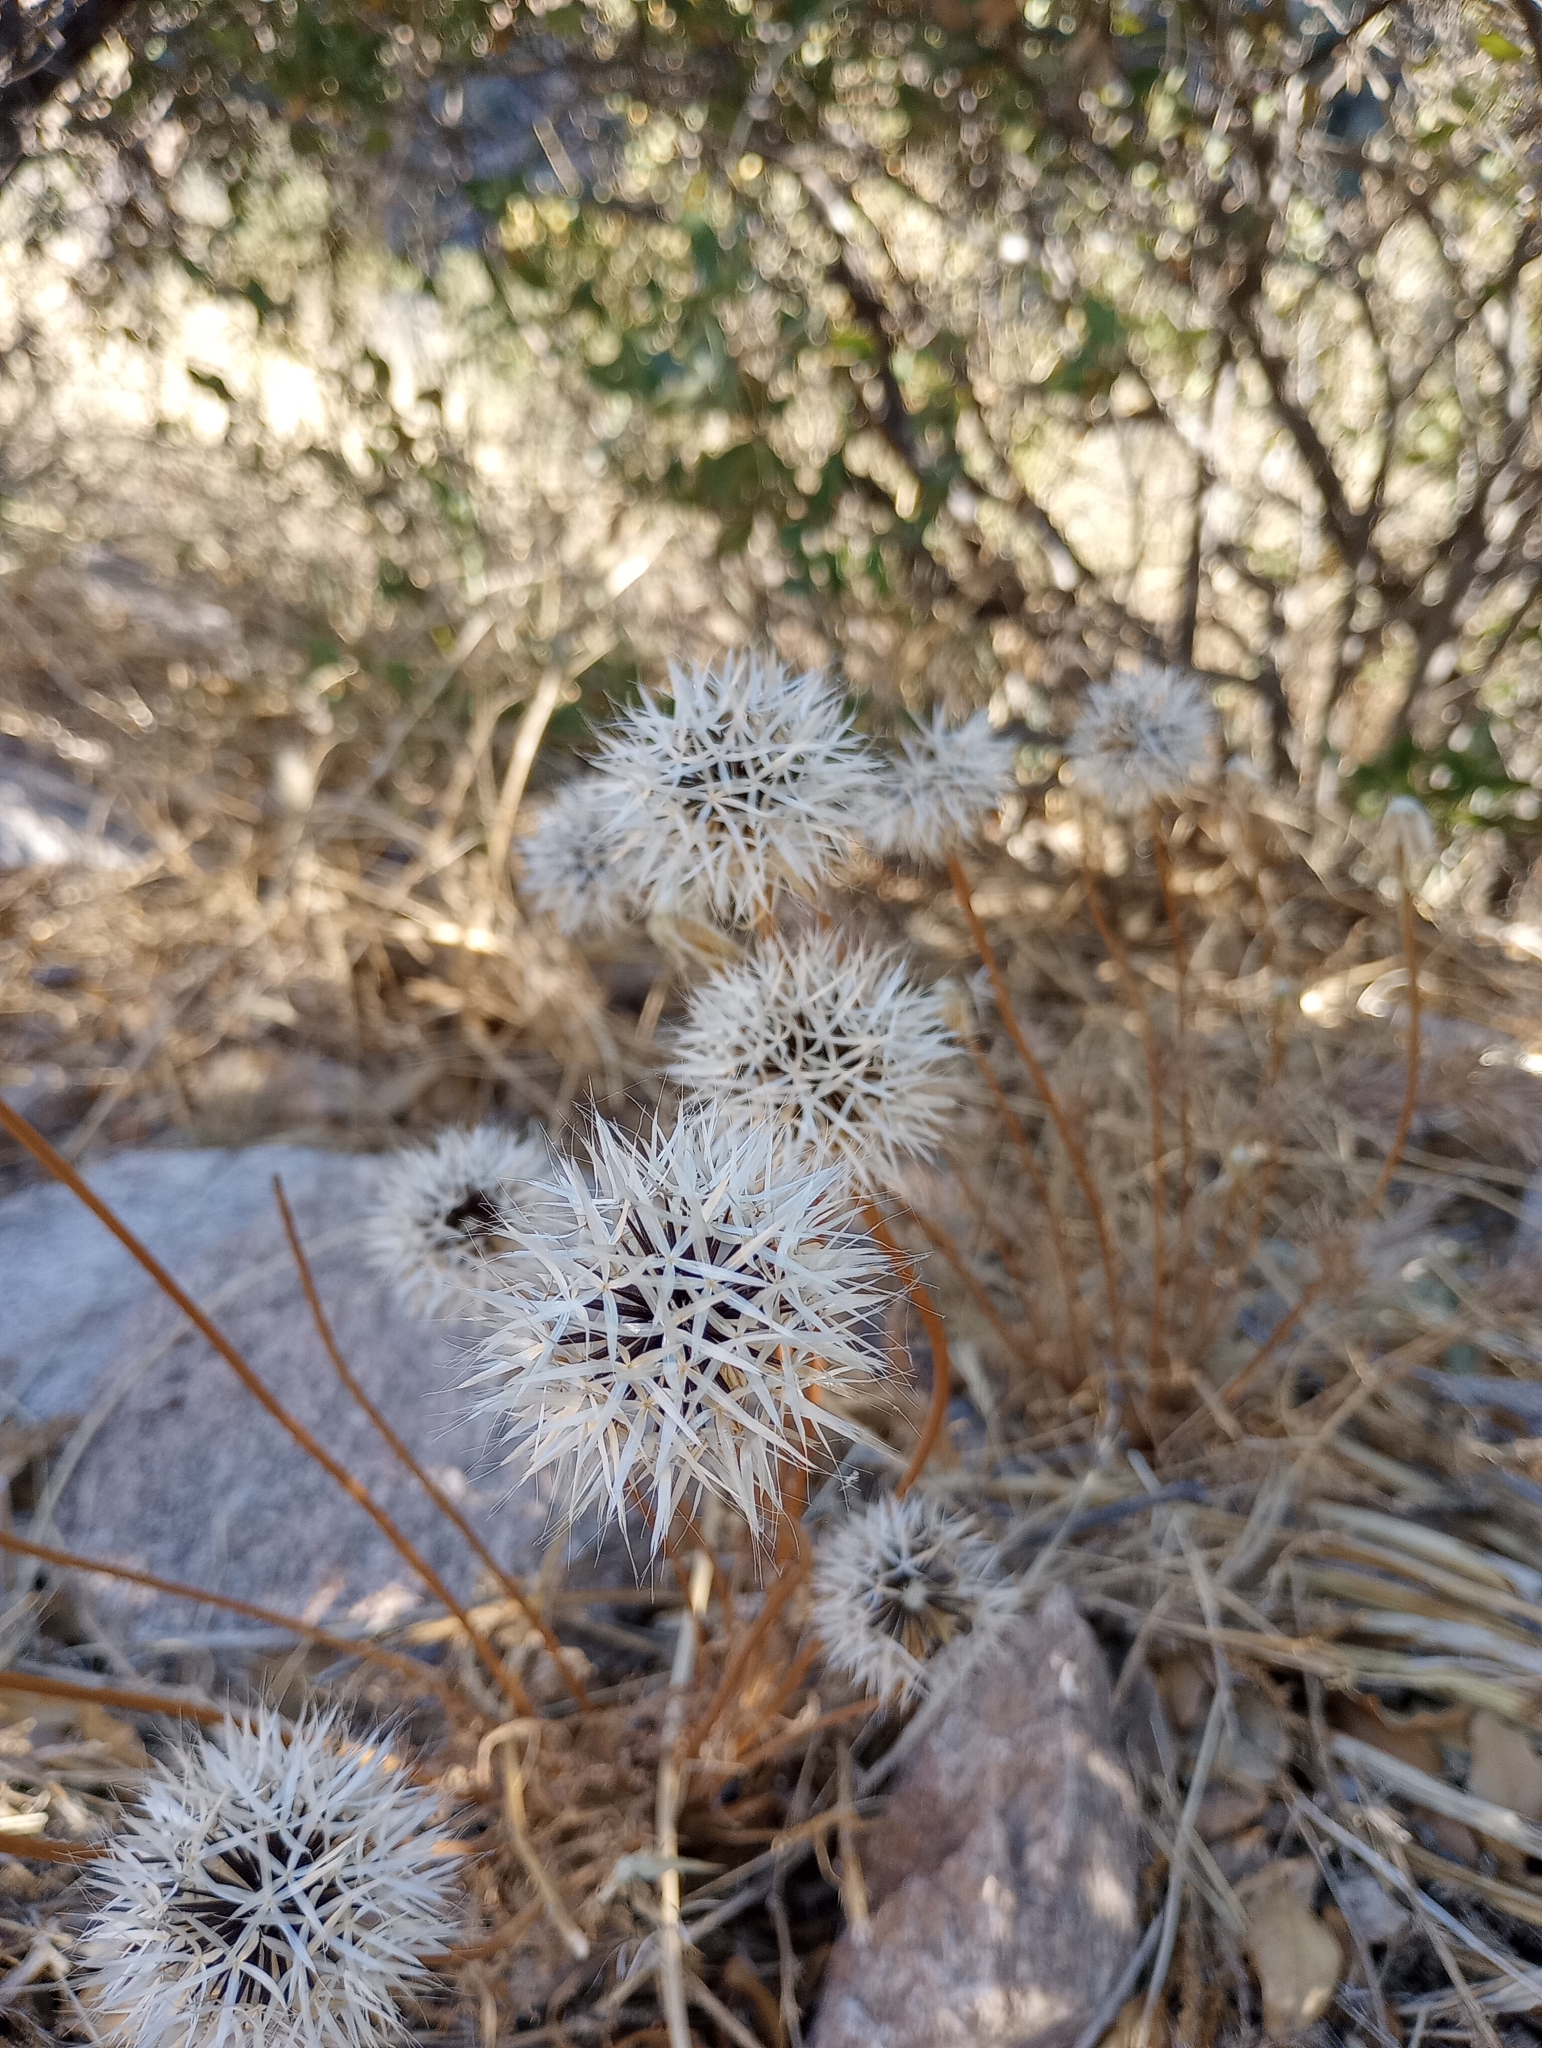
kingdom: Plantae
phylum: Tracheophyta
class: Magnoliopsida
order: Asterales
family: Asteraceae
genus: Microseris
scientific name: Microseris lindleyi
